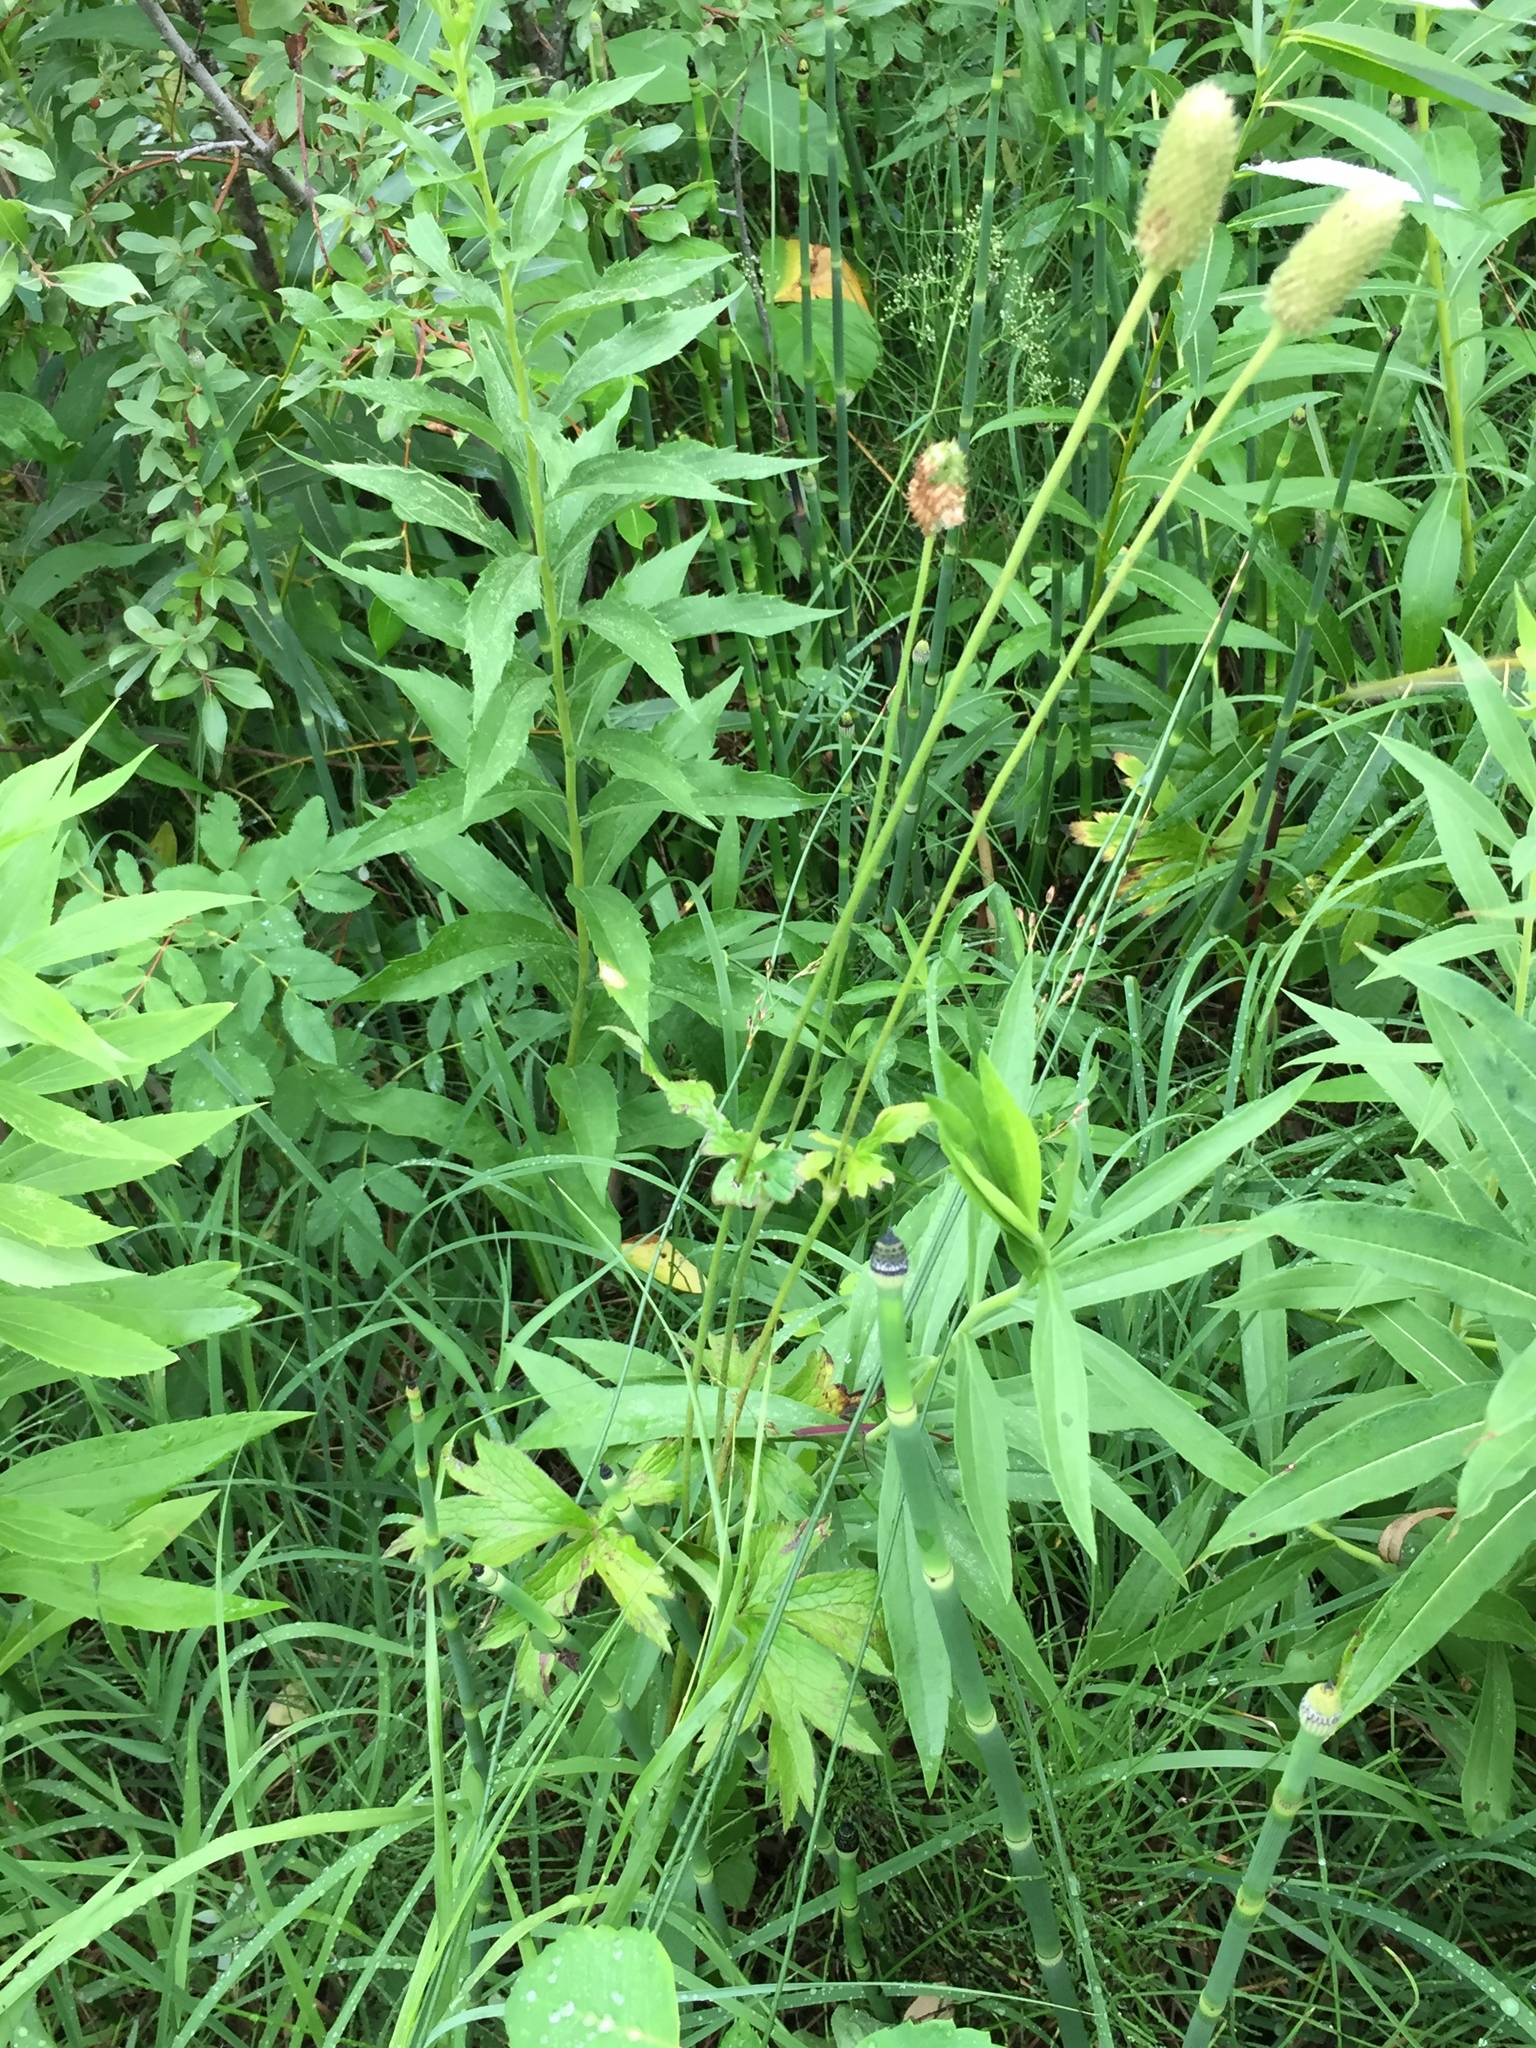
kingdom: Plantae
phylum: Tracheophyta
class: Magnoliopsida
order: Ranunculales
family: Ranunculaceae
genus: Anemone
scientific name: Anemone virginiana
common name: Tall anemone
